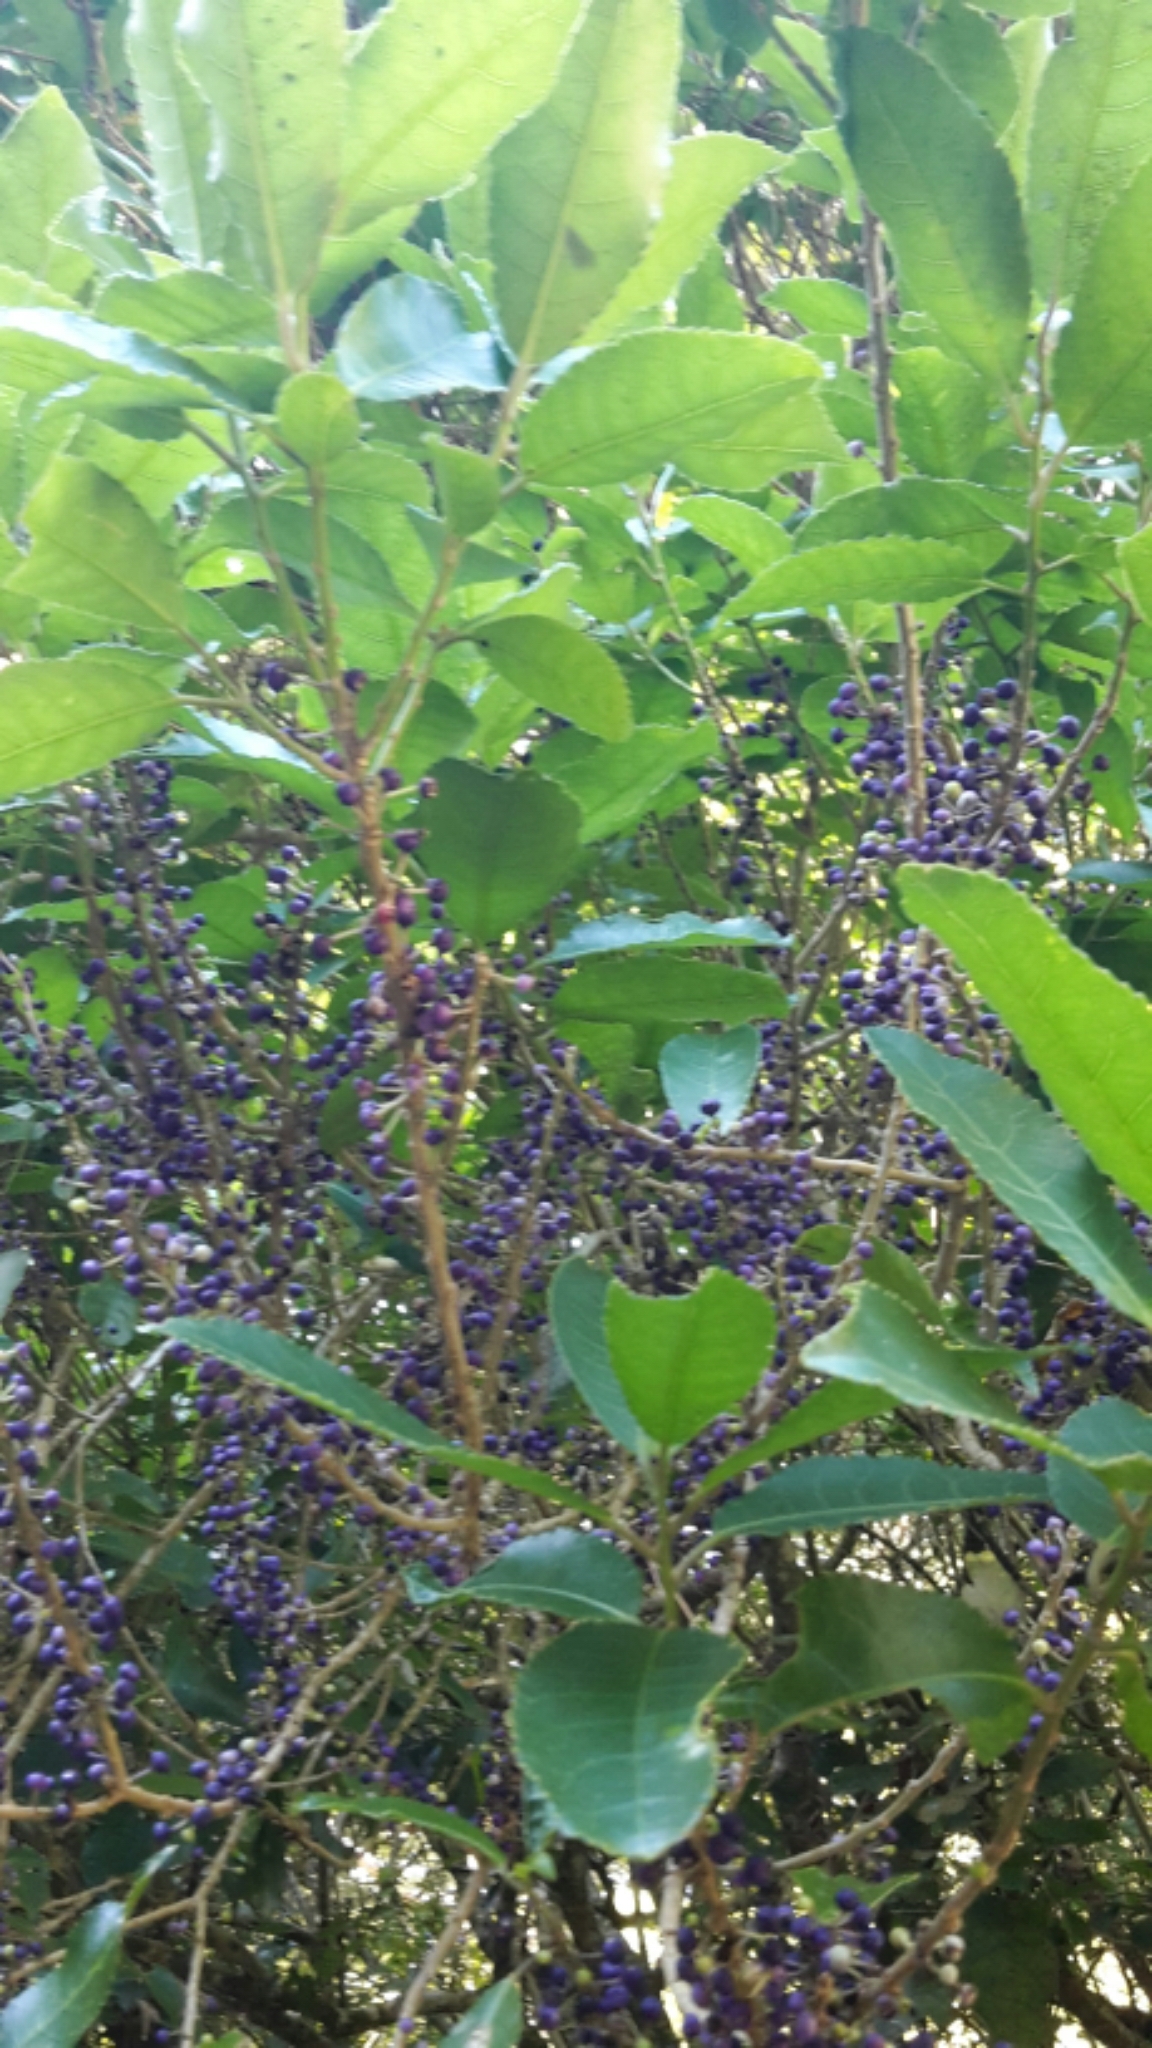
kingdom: Plantae
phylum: Tracheophyta
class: Magnoliopsida
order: Malpighiales
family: Violaceae
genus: Melicytus
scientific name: Melicytus ramiflorus
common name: Mahoe
